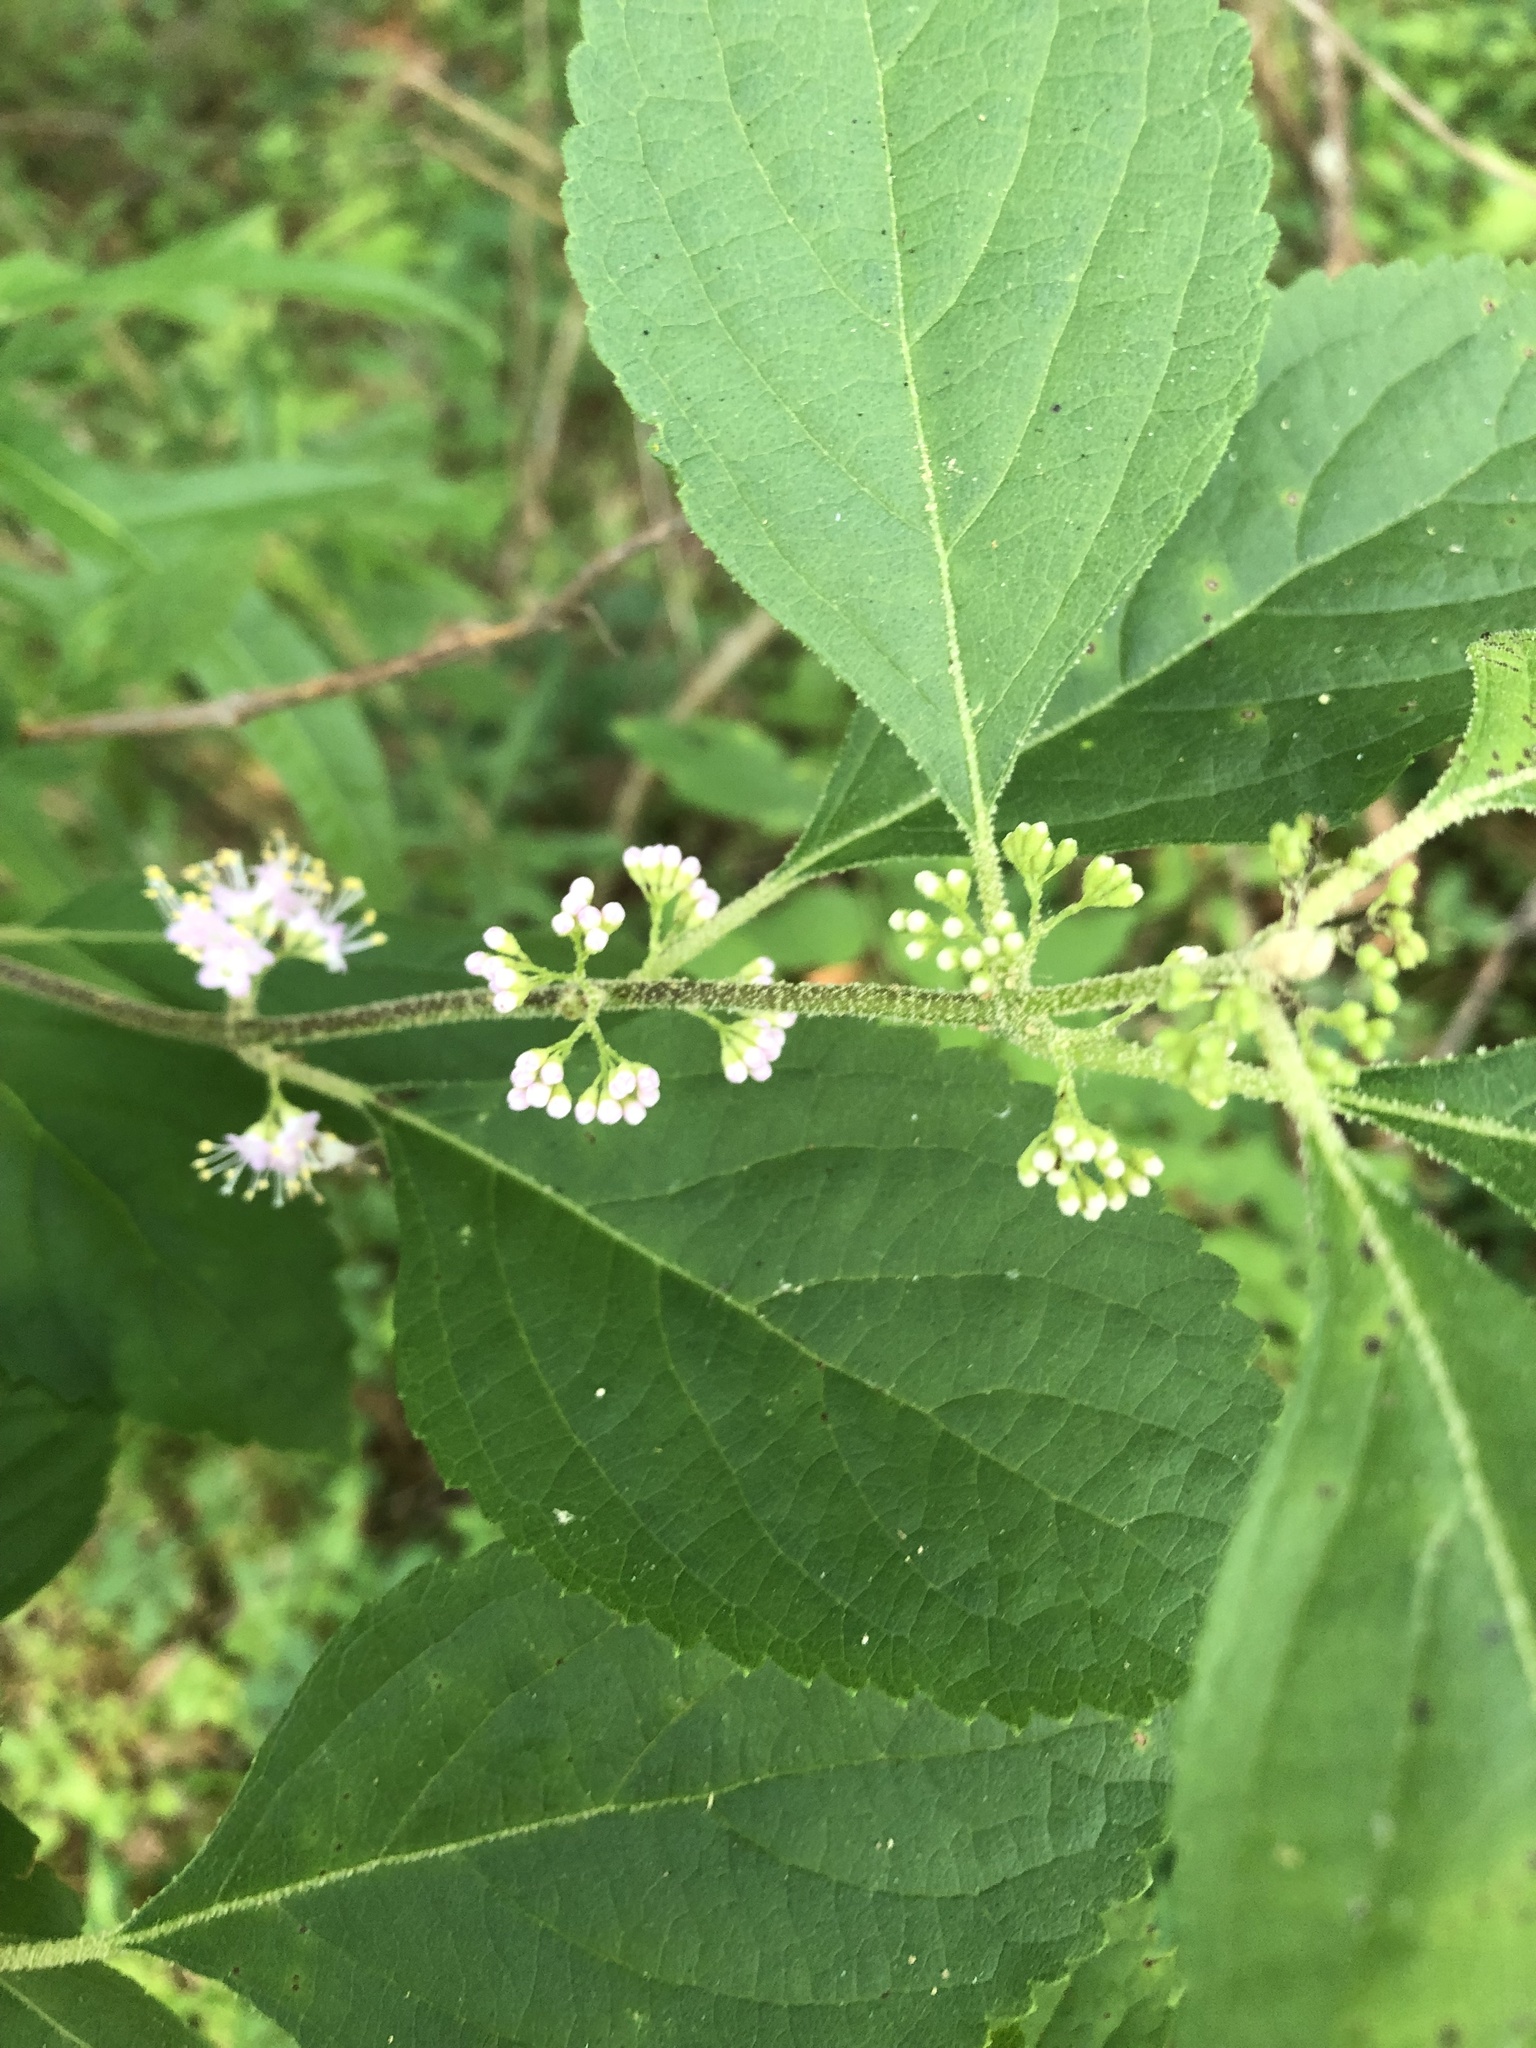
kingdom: Plantae
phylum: Tracheophyta
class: Magnoliopsida
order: Lamiales
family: Lamiaceae
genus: Callicarpa
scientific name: Callicarpa americana
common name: American beautyberry
